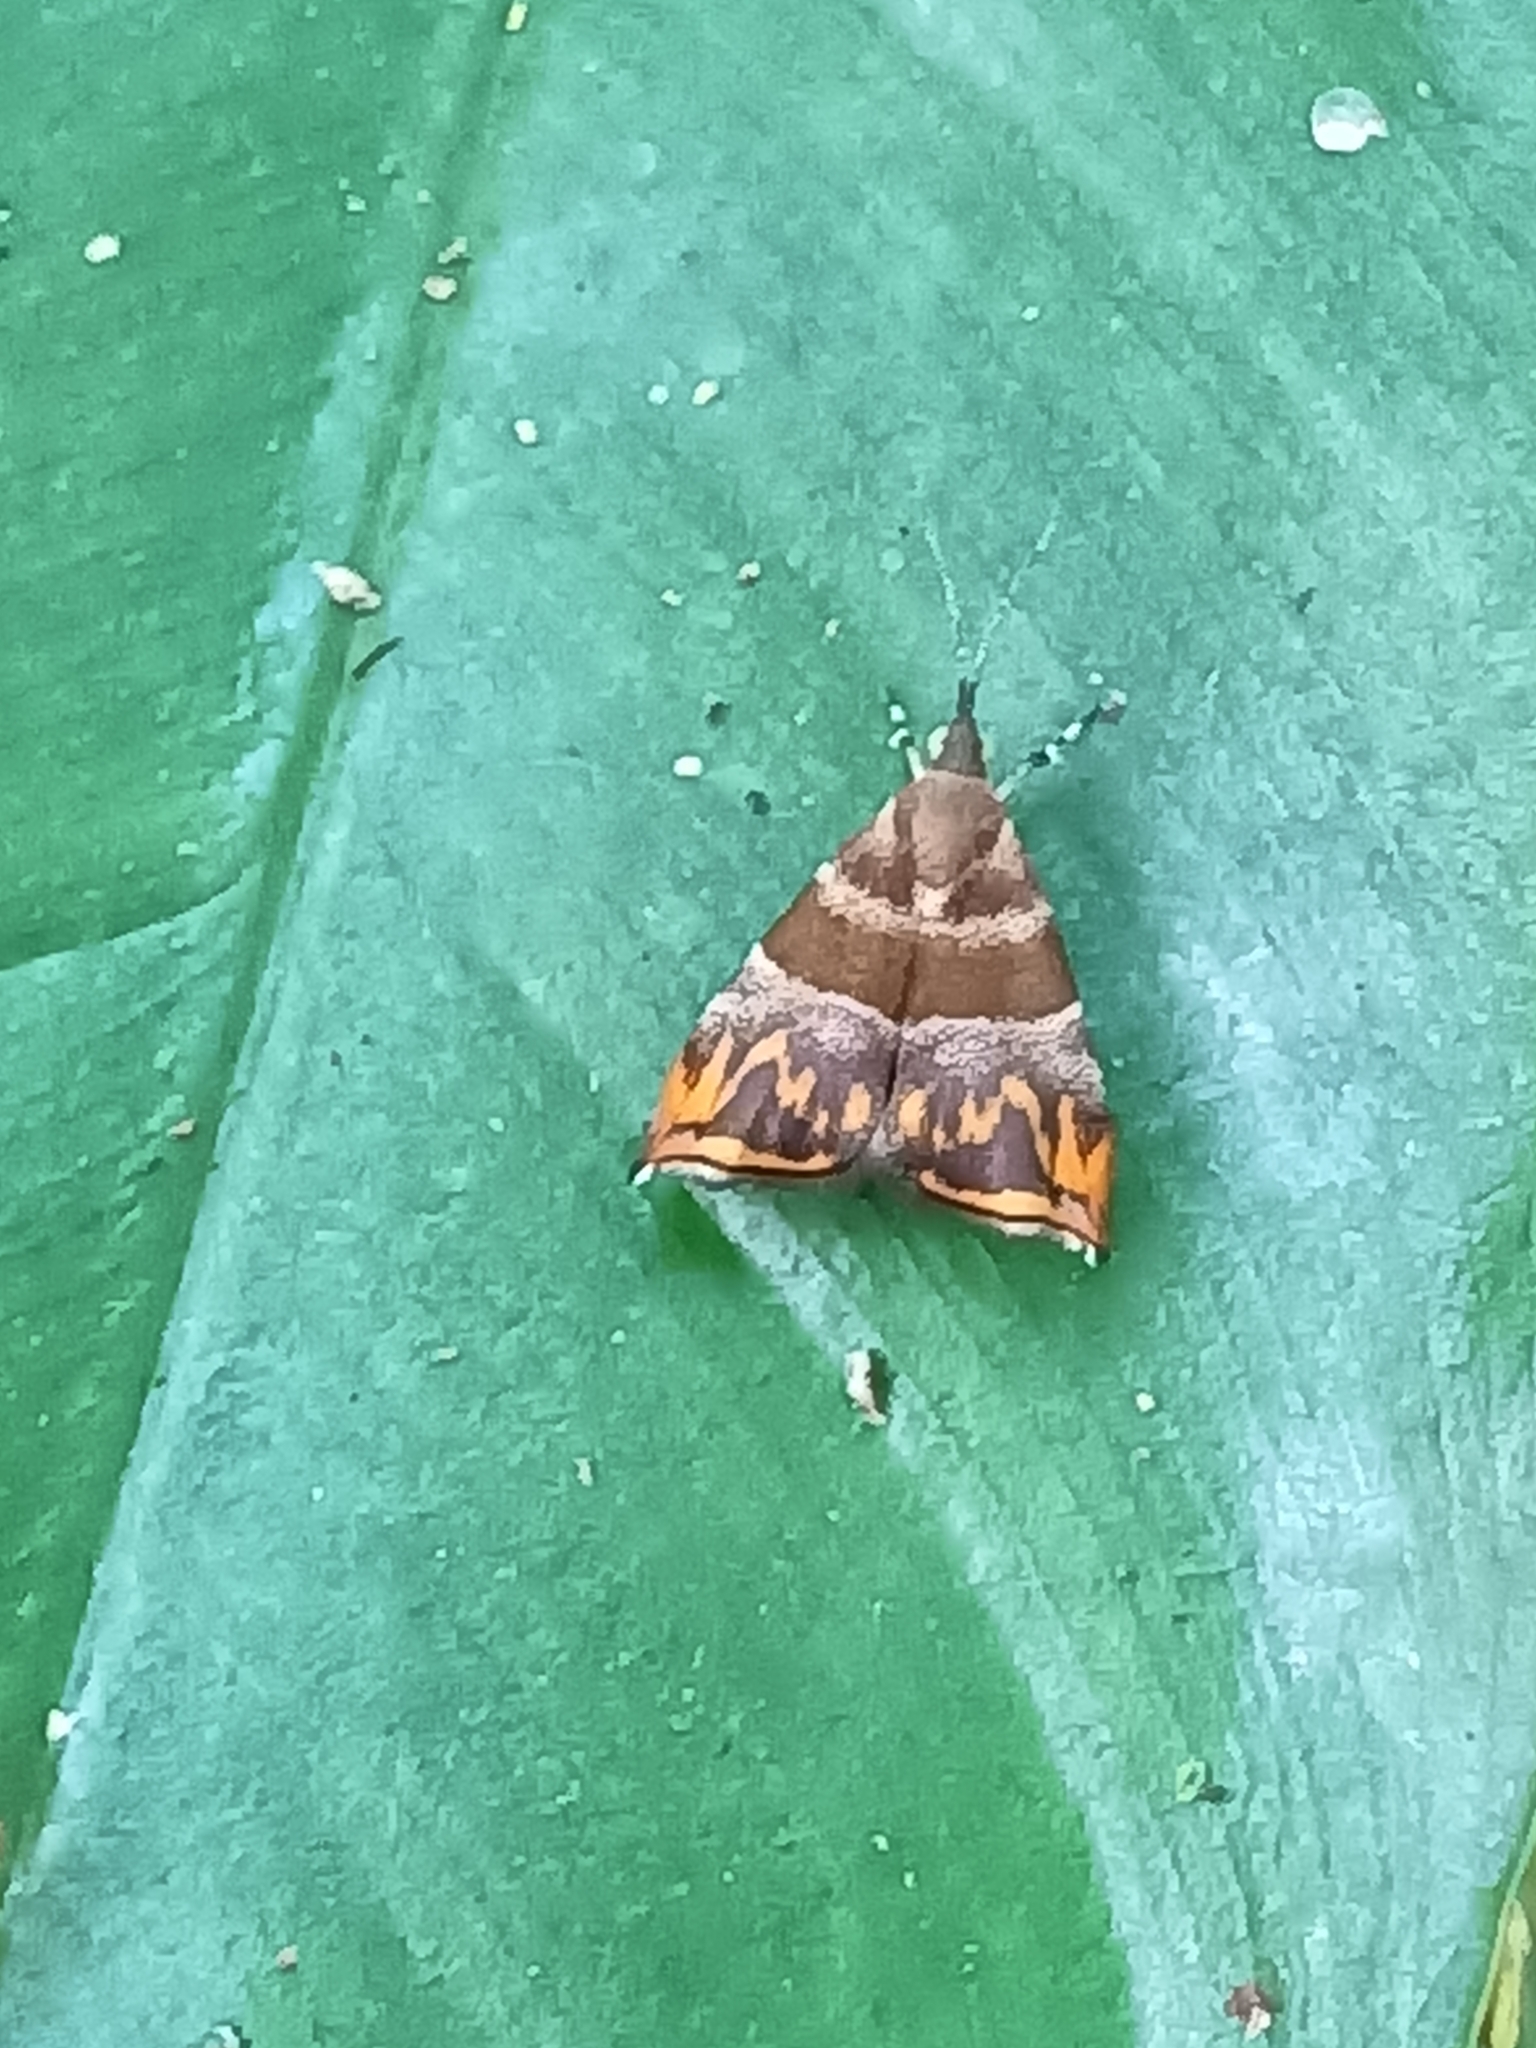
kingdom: Animalia
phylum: Arthropoda
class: Insecta
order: Lepidoptera
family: Choreutidae
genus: Ornarantia
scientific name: Ornarantia
